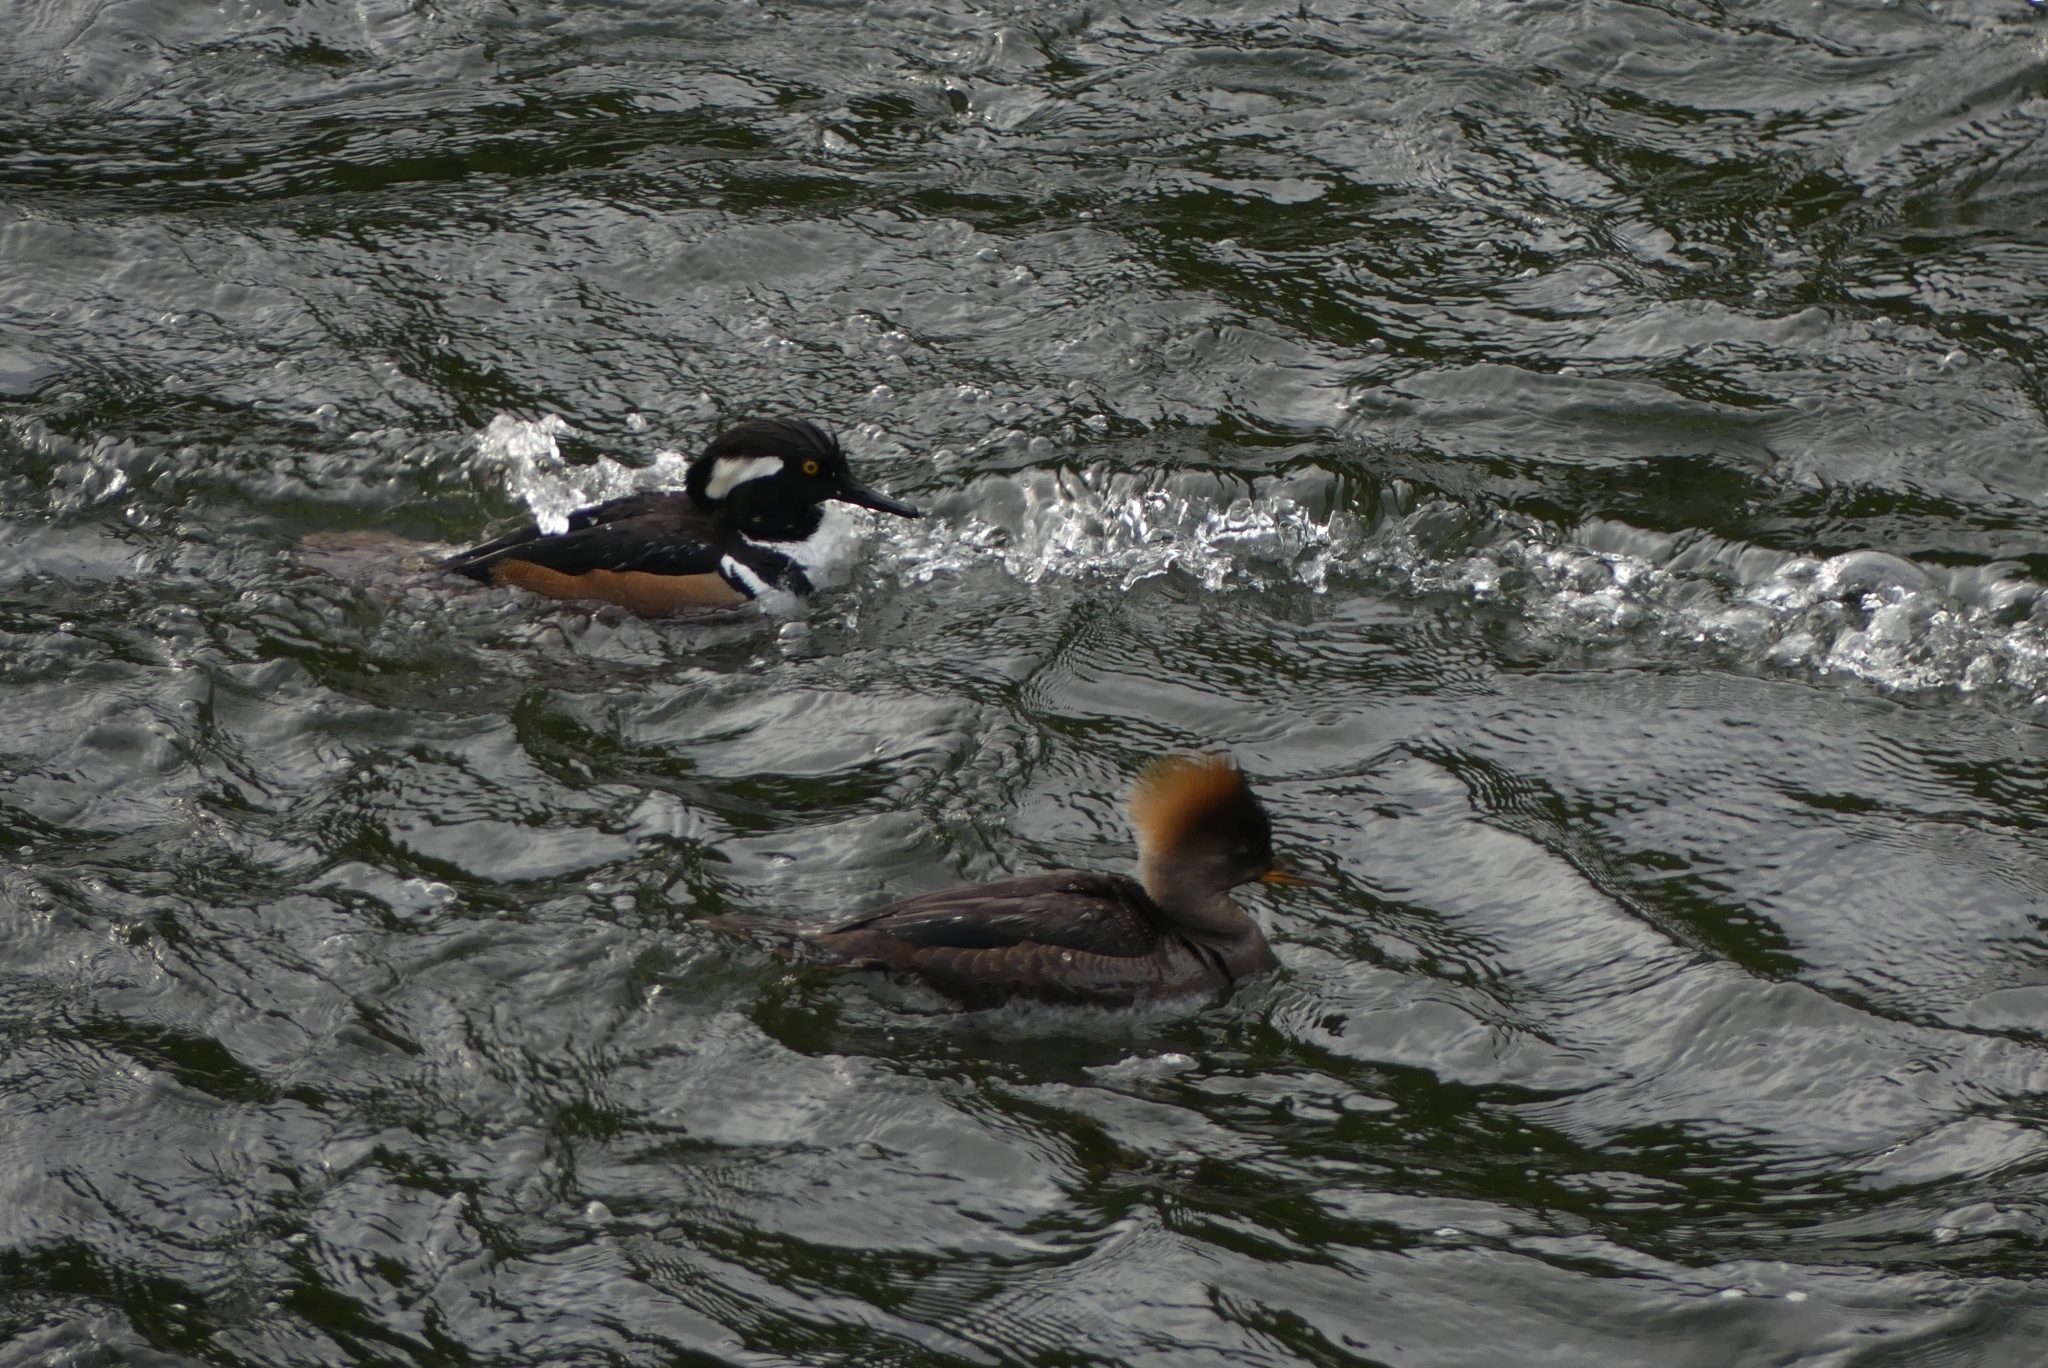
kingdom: Animalia
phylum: Chordata
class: Aves
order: Anseriformes
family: Anatidae
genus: Lophodytes
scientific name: Lophodytes cucullatus
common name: Hooded merganser
